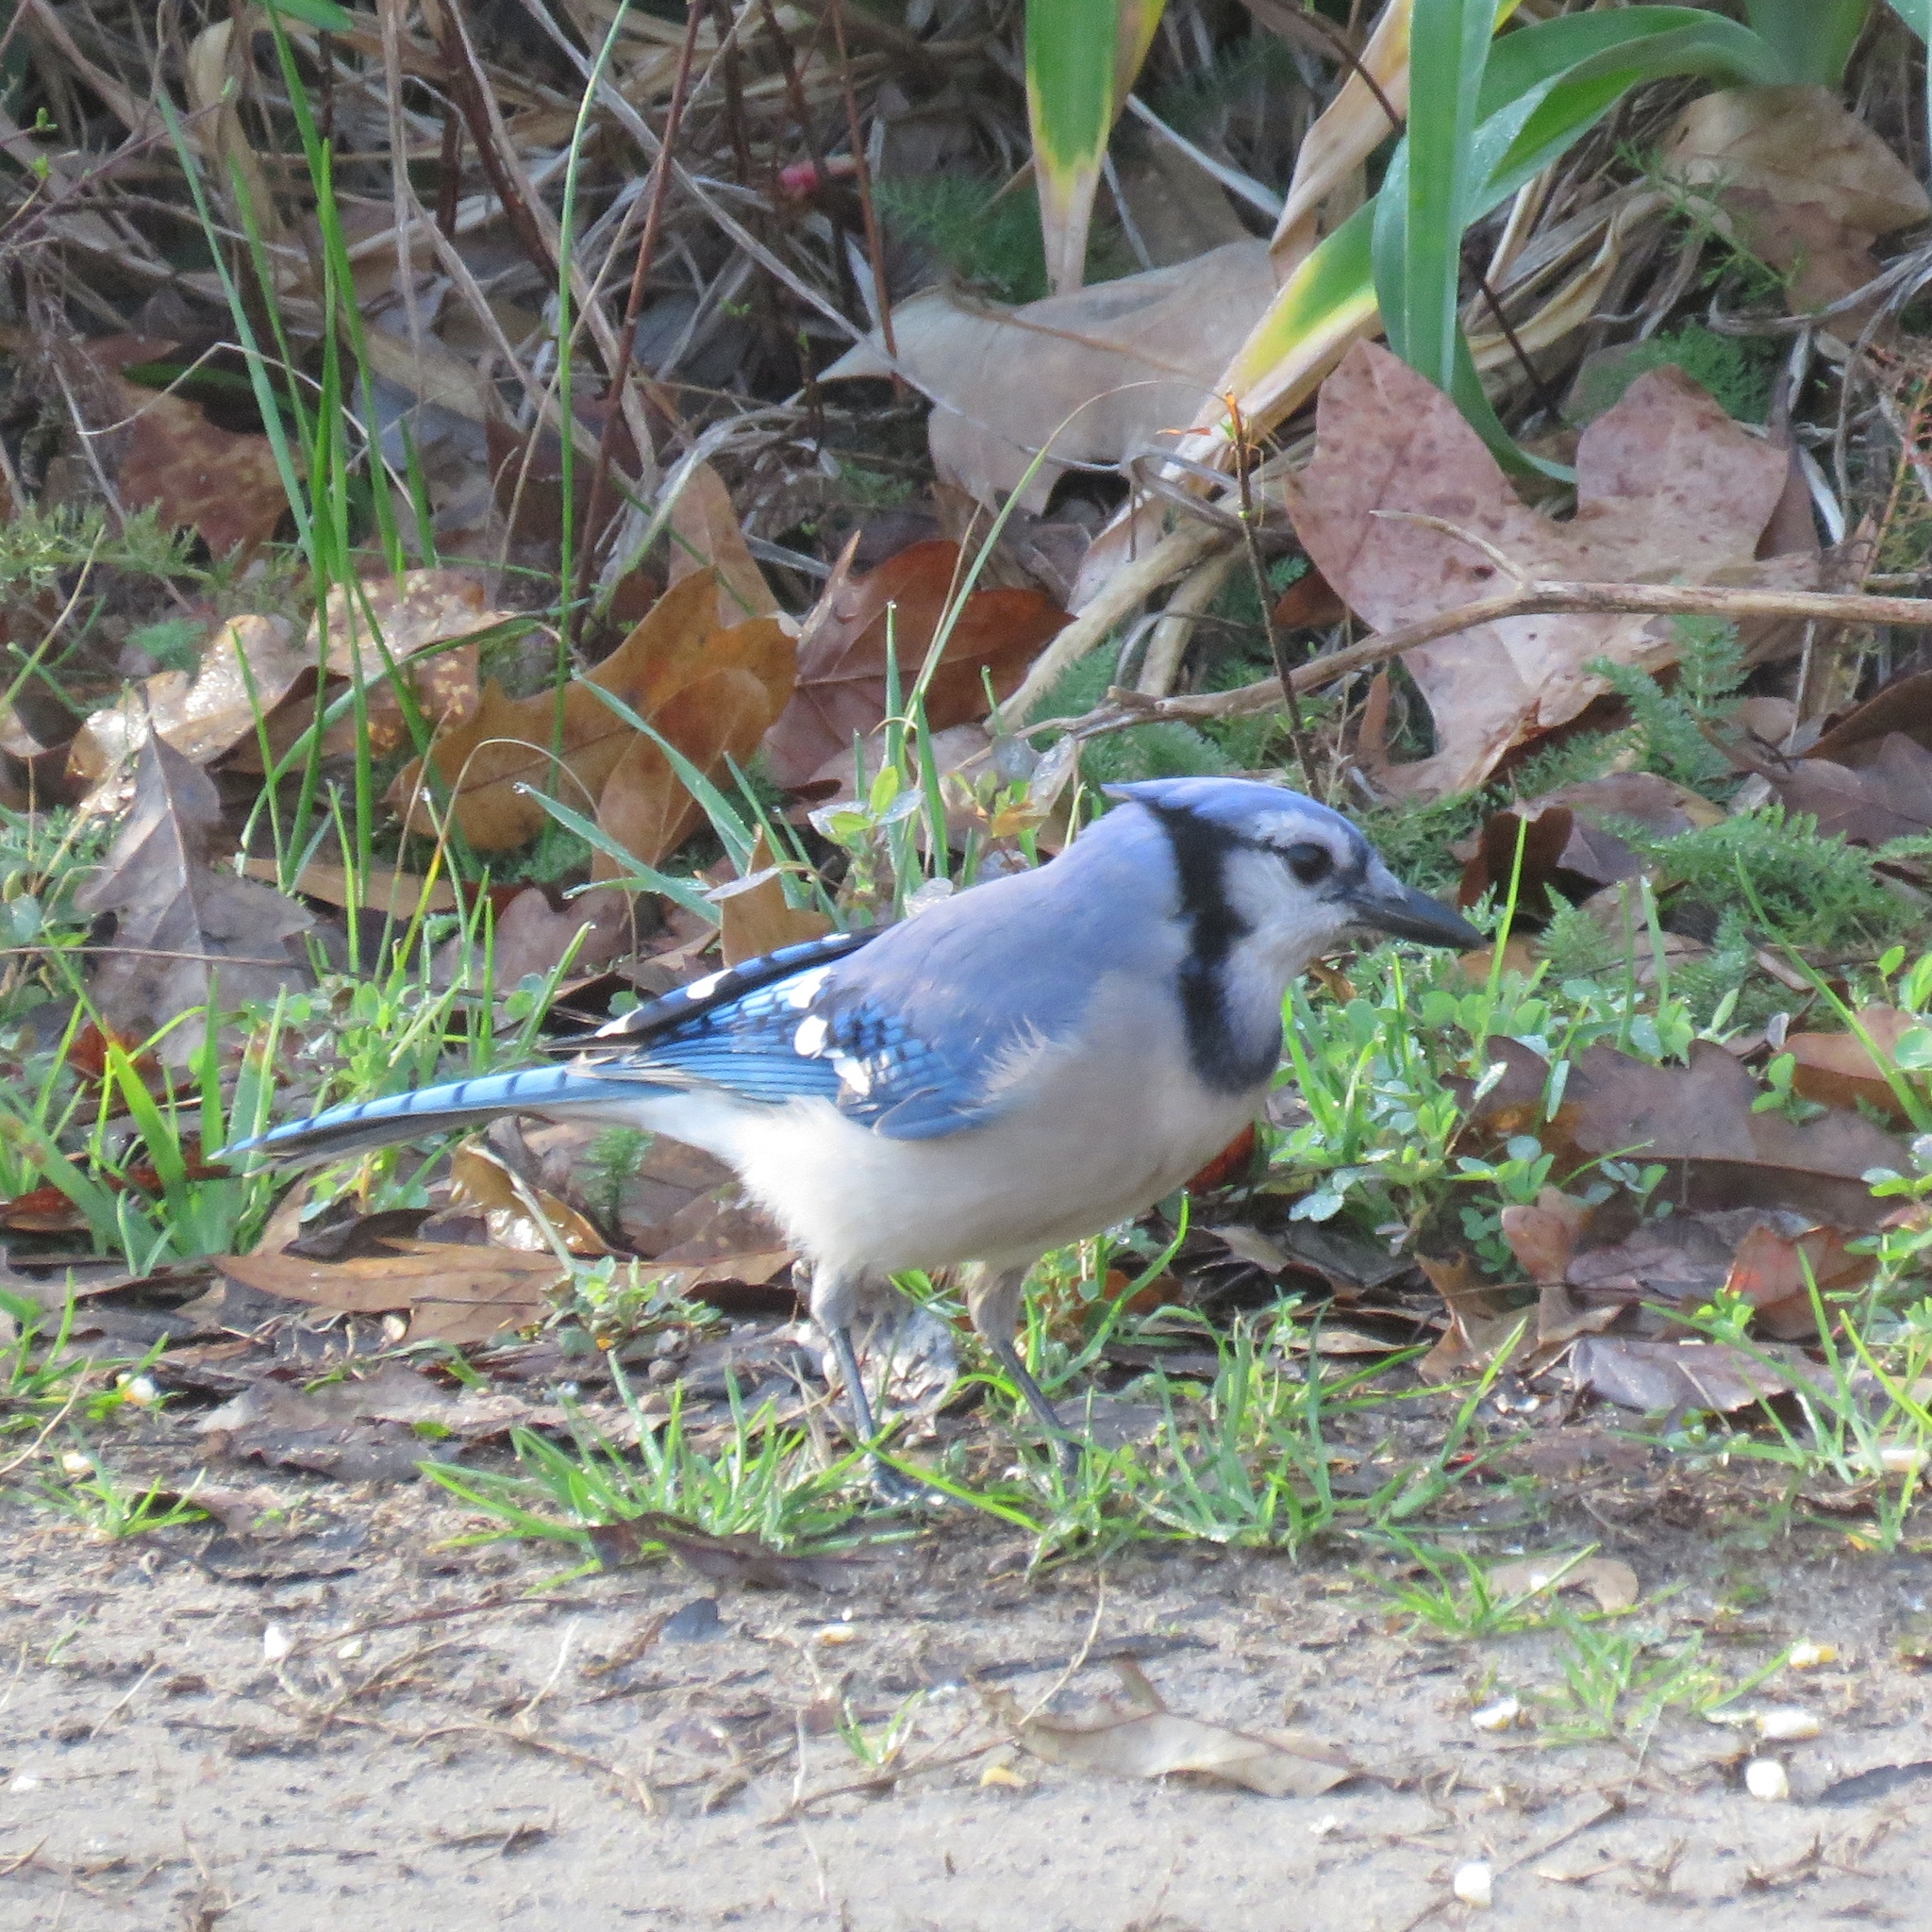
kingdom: Animalia
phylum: Chordata
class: Aves
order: Passeriformes
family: Corvidae
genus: Cyanocitta
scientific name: Cyanocitta cristata
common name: Blue jay
